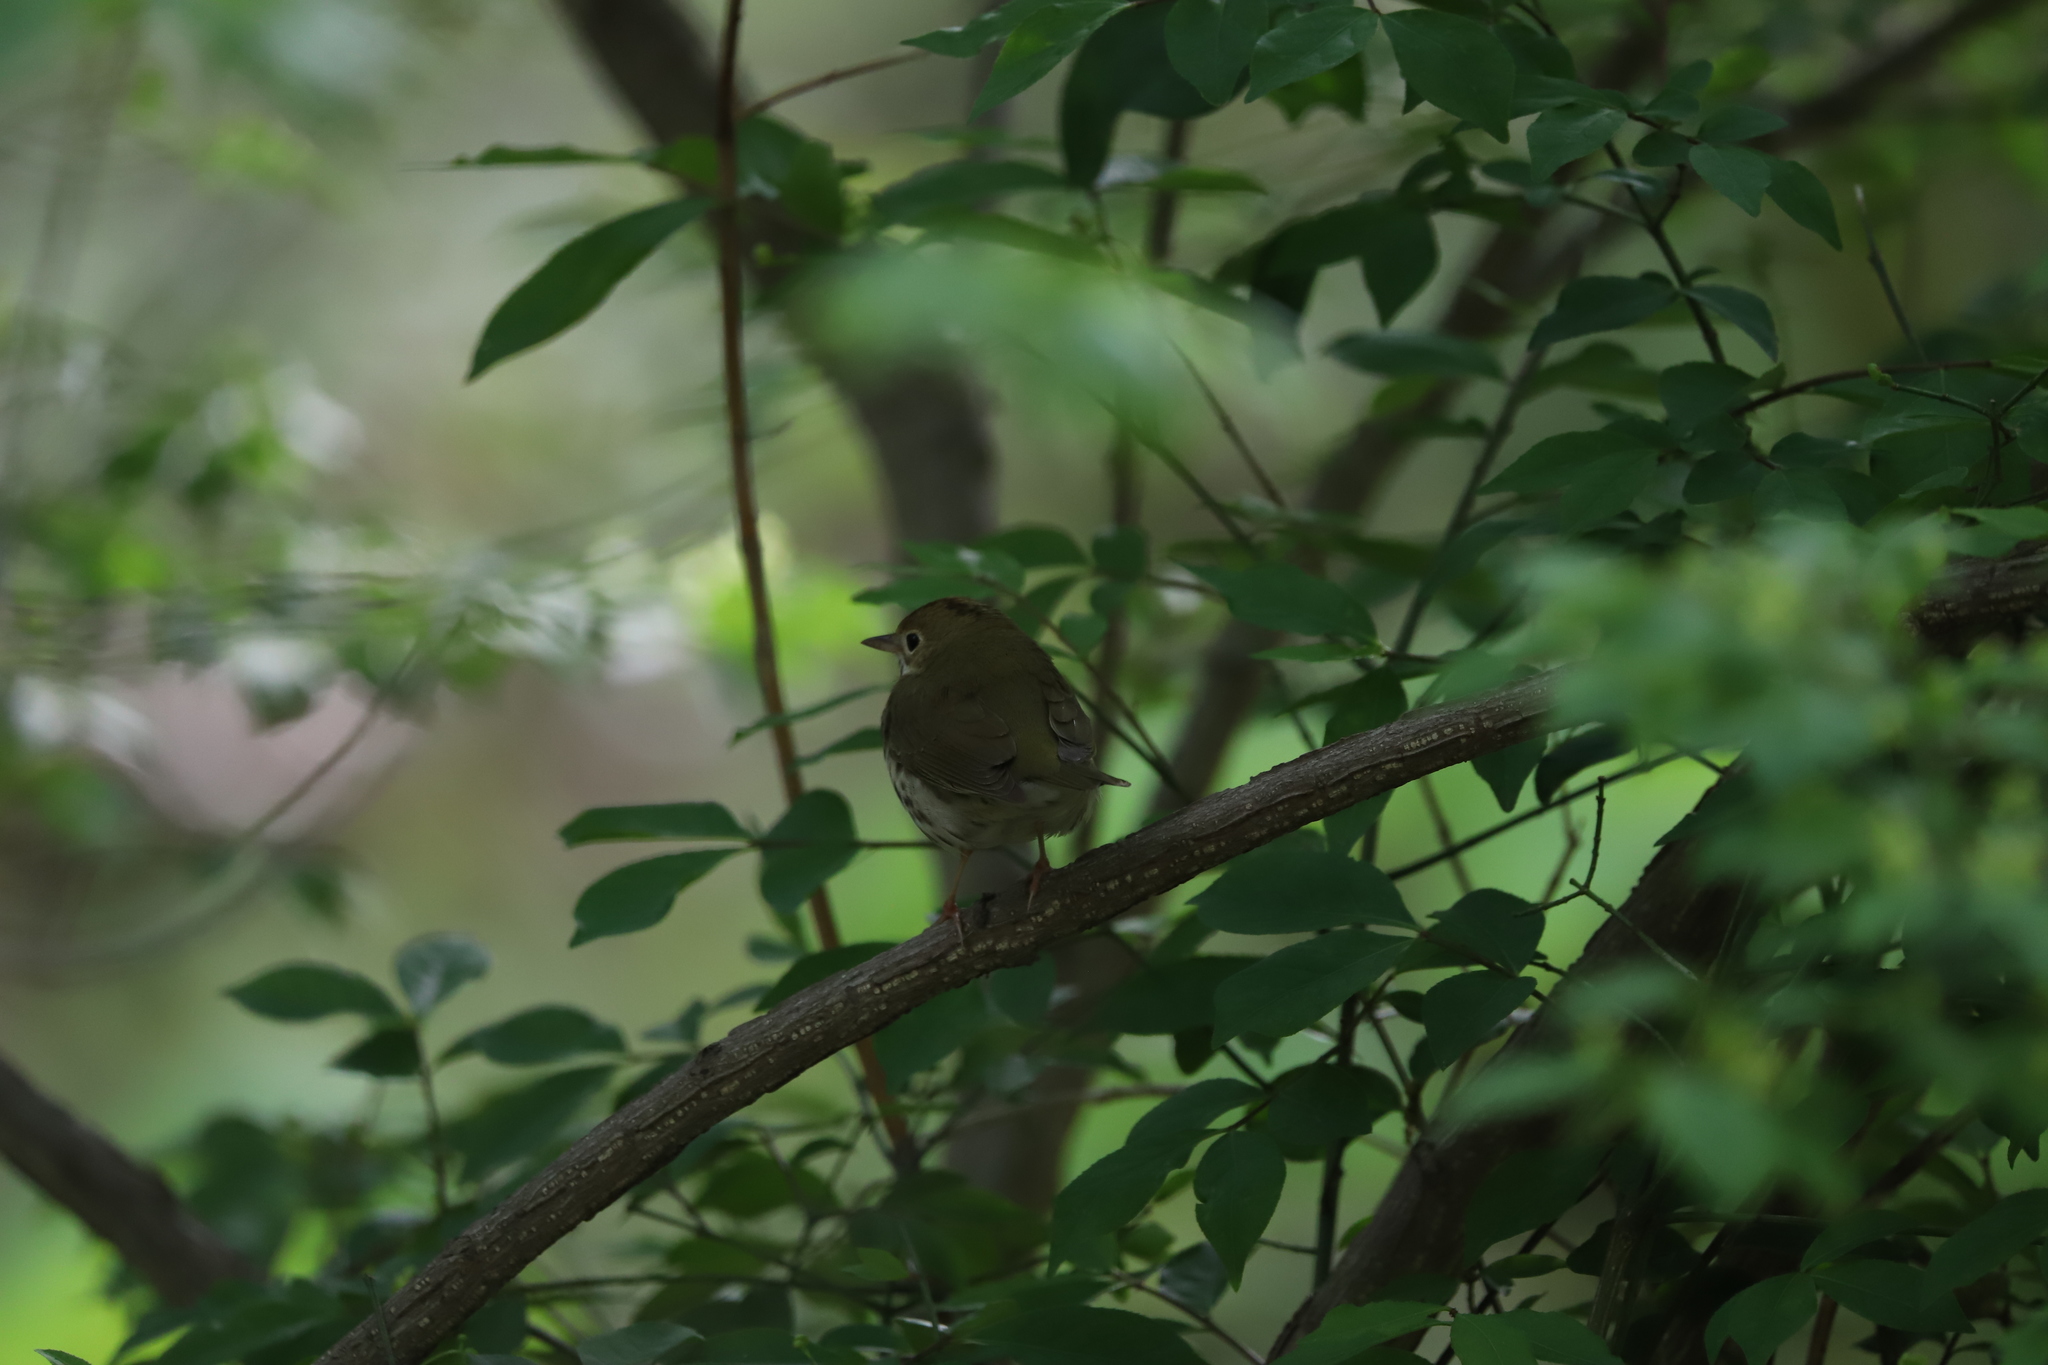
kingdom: Animalia
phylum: Chordata
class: Aves
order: Passeriformes
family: Parulidae
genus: Seiurus
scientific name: Seiurus aurocapilla
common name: Ovenbird
